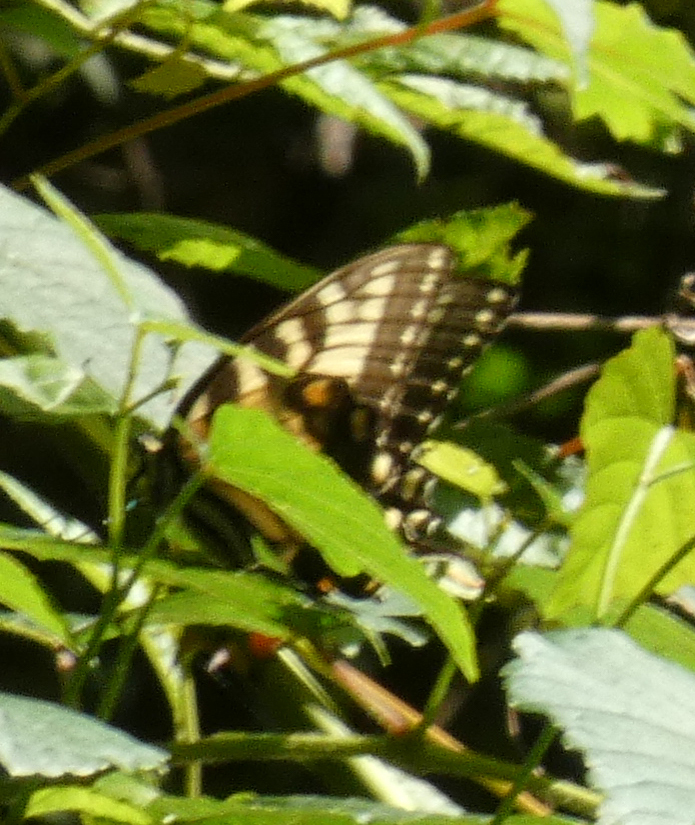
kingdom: Animalia
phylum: Arthropoda
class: Insecta
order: Lepidoptera
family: Papilionidae
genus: Papilio
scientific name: Papilio glaucus
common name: Tiger swallowtail
